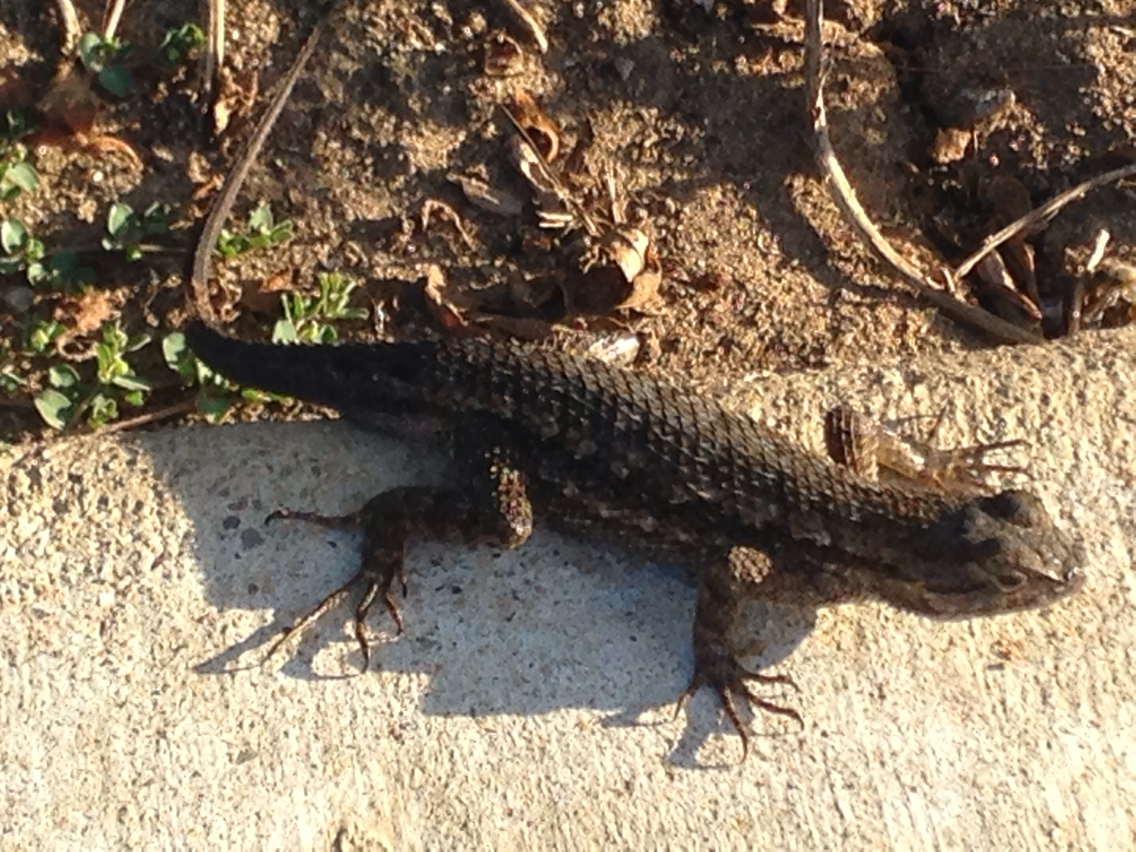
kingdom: Animalia
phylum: Chordata
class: Squamata
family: Phrynosomatidae
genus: Sceloporus
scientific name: Sceloporus occidentalis
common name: Western fence lizard
